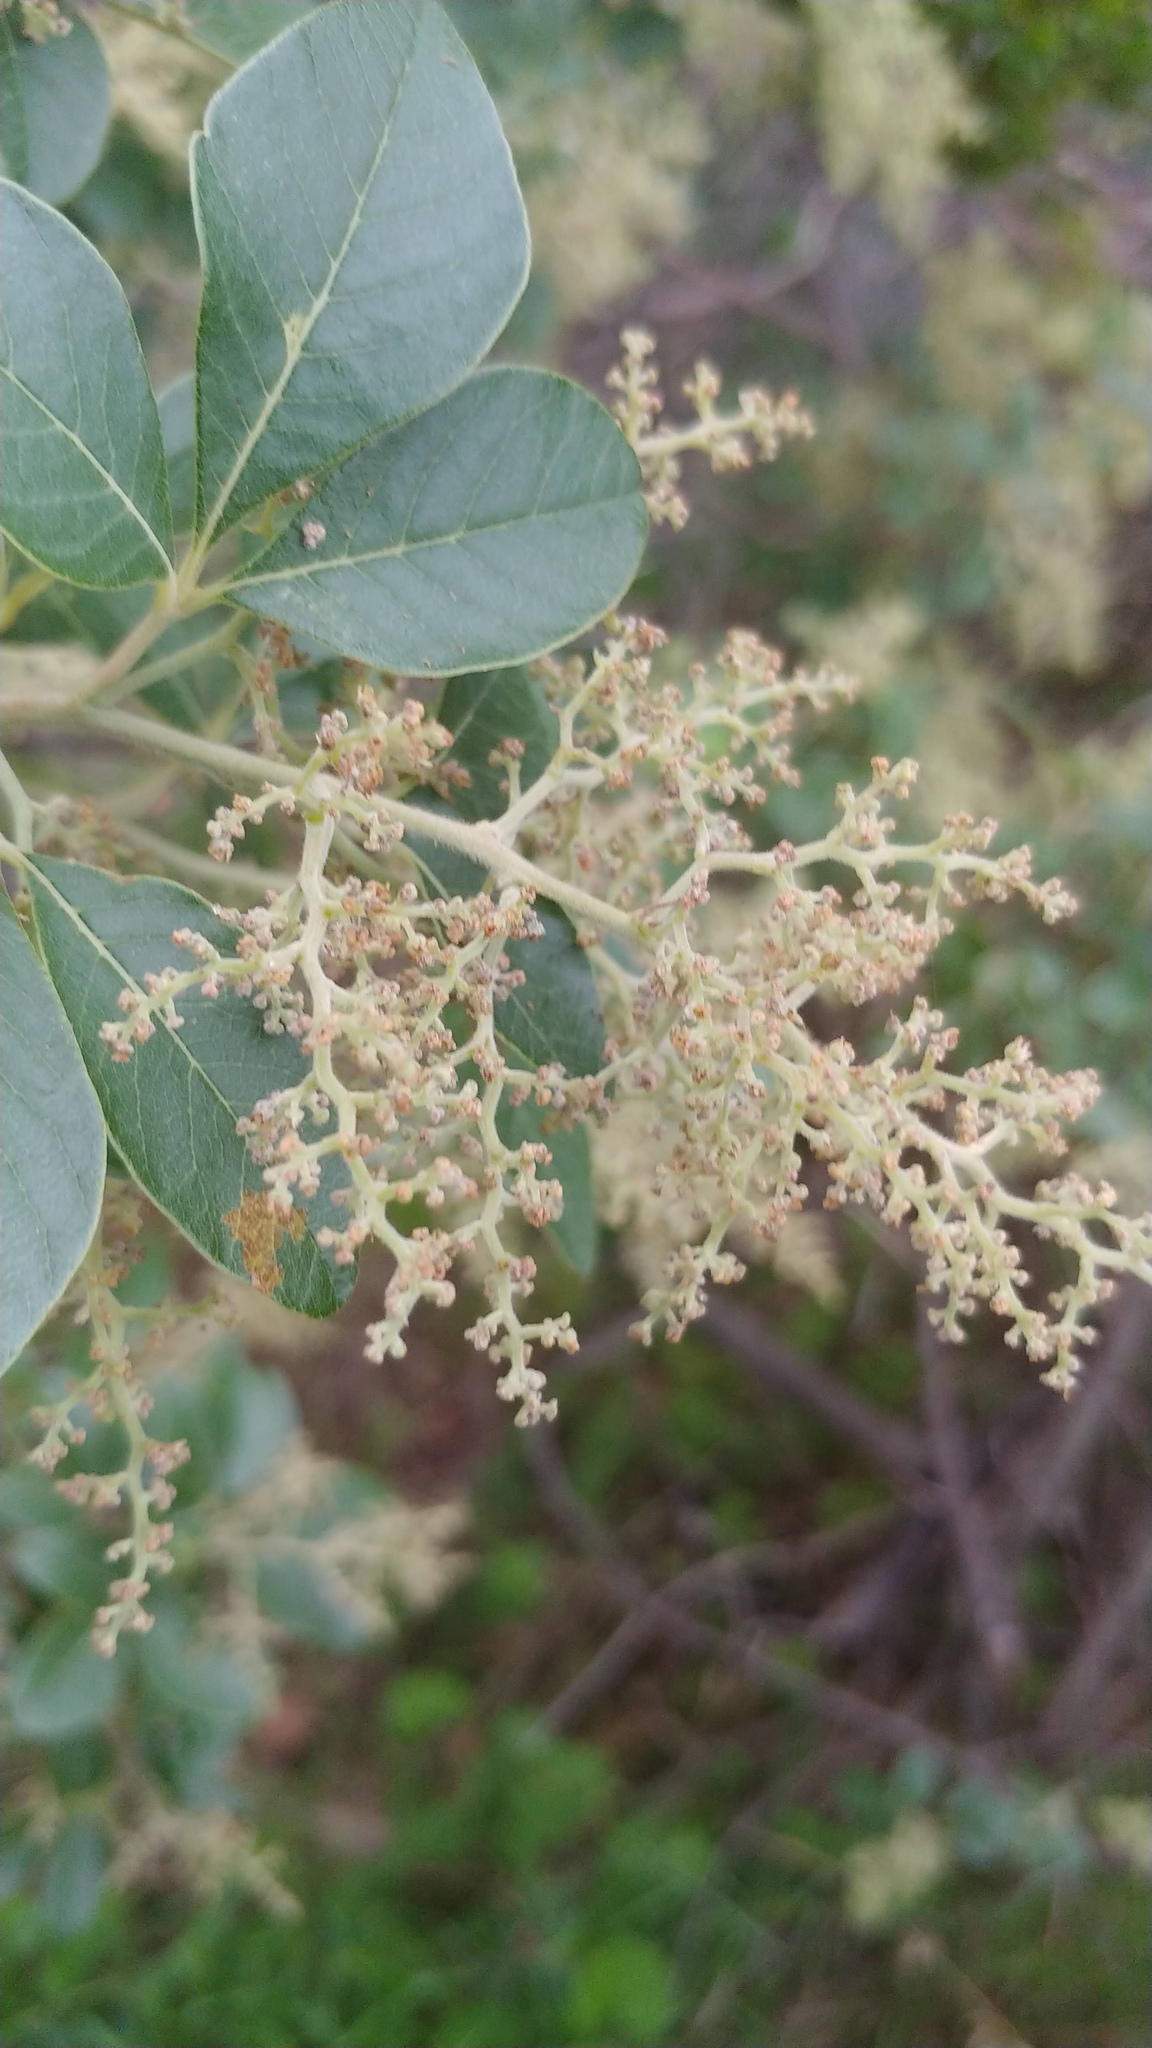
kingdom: Plantae
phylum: Tracheophyta
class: Magnoliopsida
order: Sapindales
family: Anacardiaceae
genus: Searsia
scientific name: Searsia tomentosa
